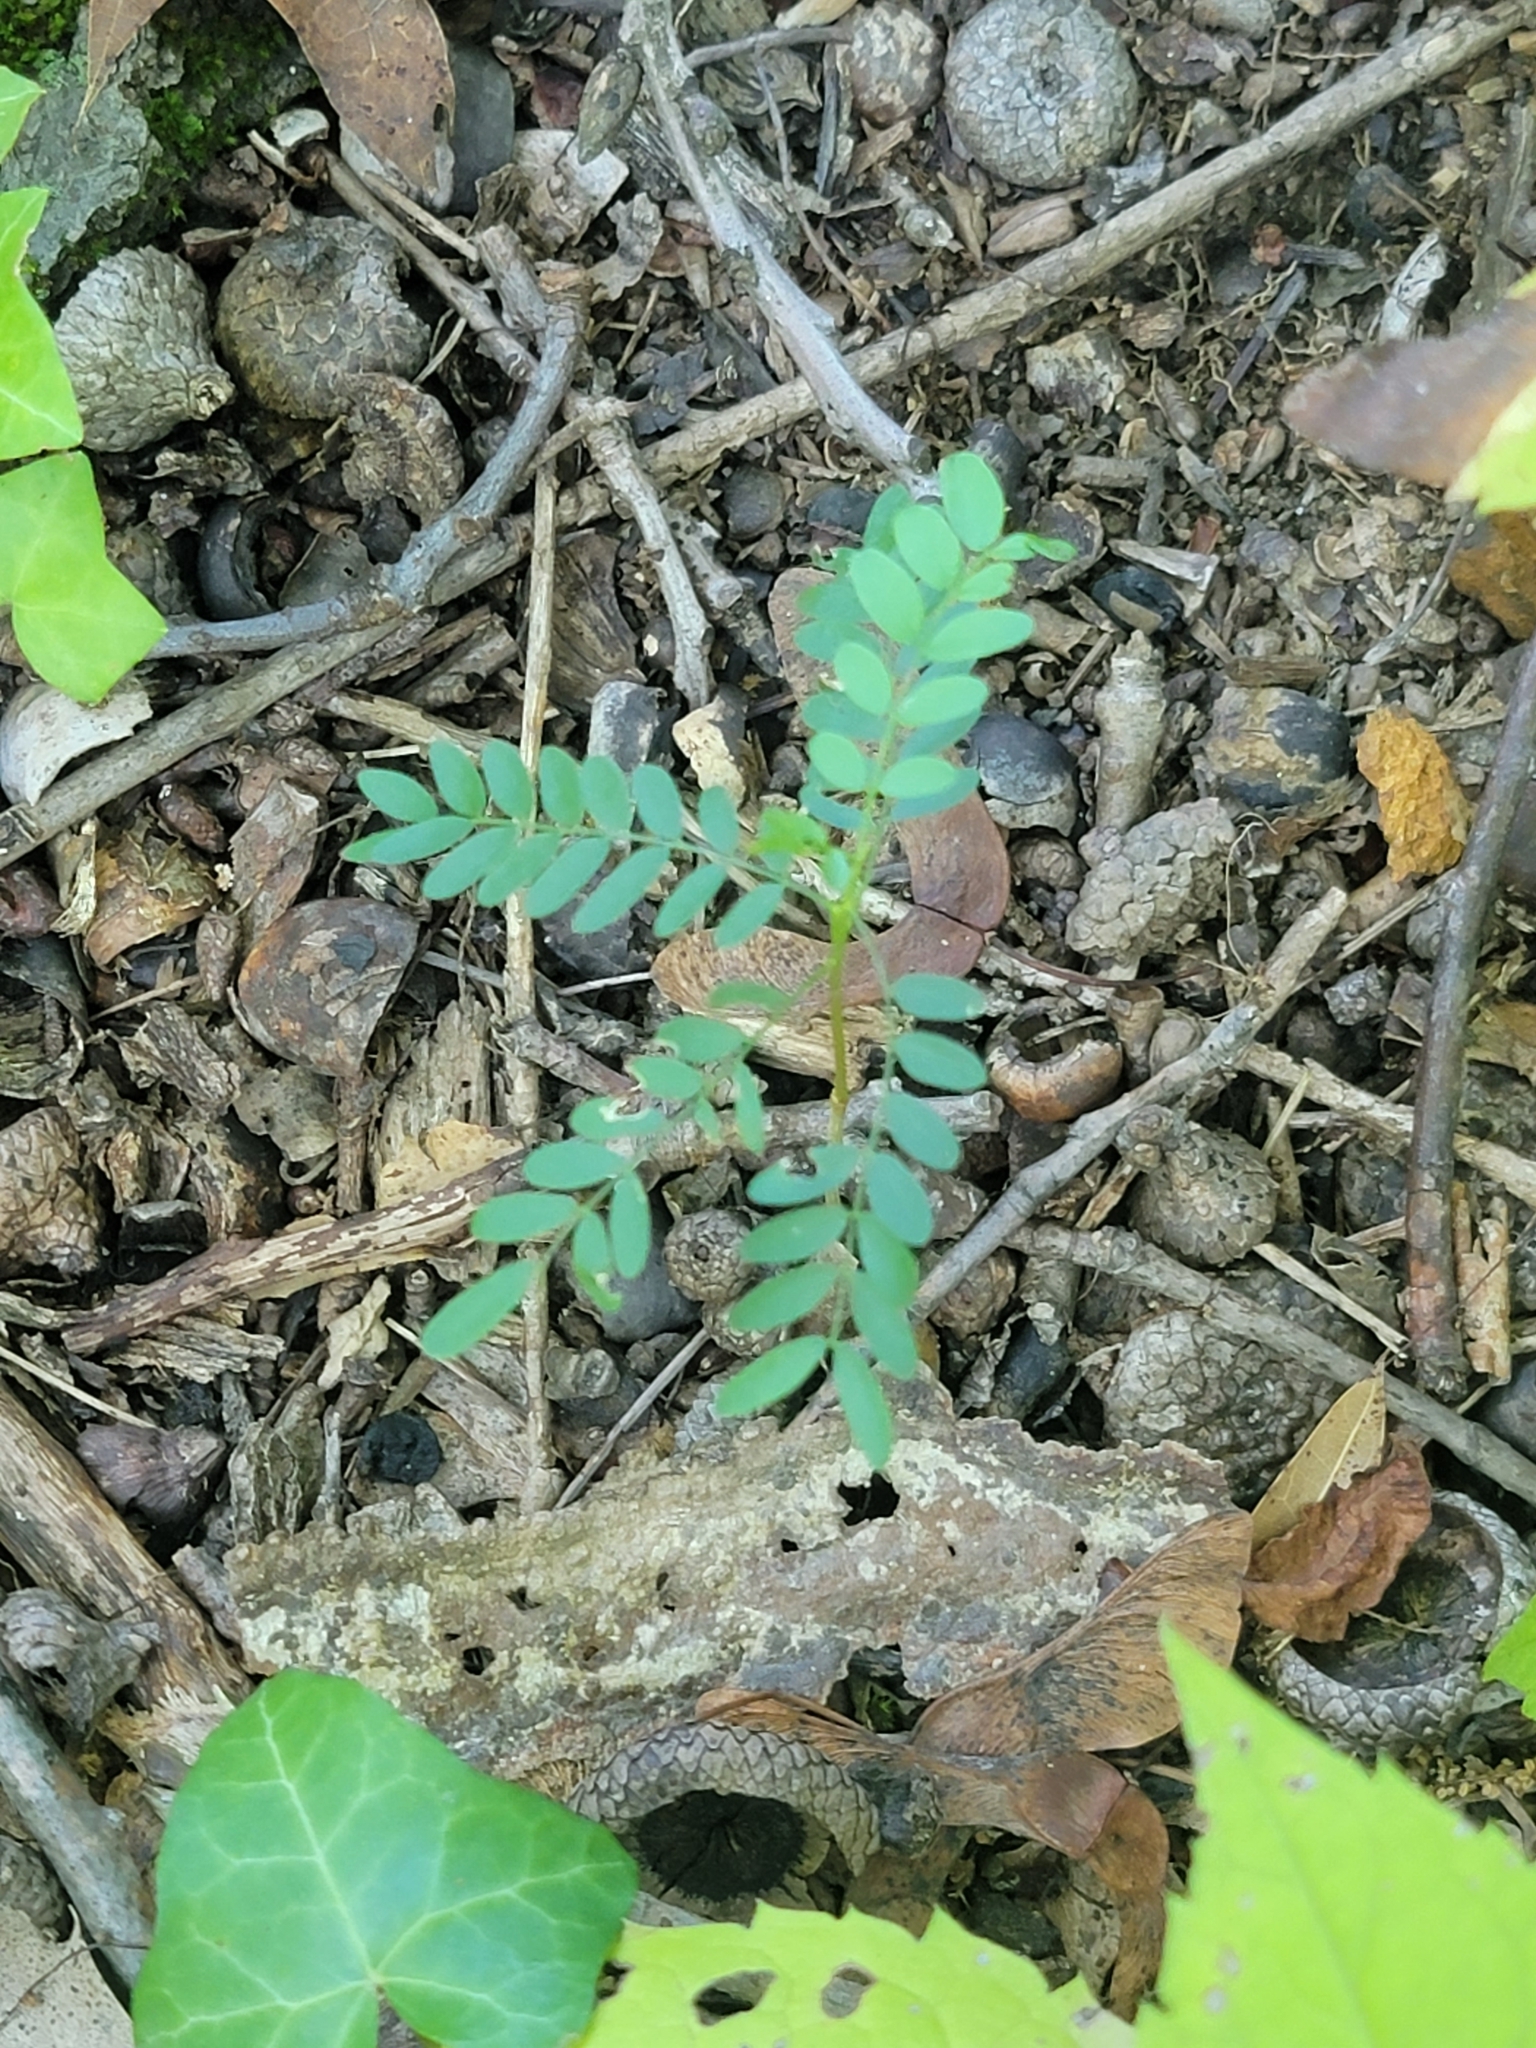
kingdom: Plantae
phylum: Tracheophyta
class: Magnoliopsida
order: Fabales
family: Fabaceae
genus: Gleditsia
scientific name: Gleditsia triacanthos
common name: Common honeylocust
